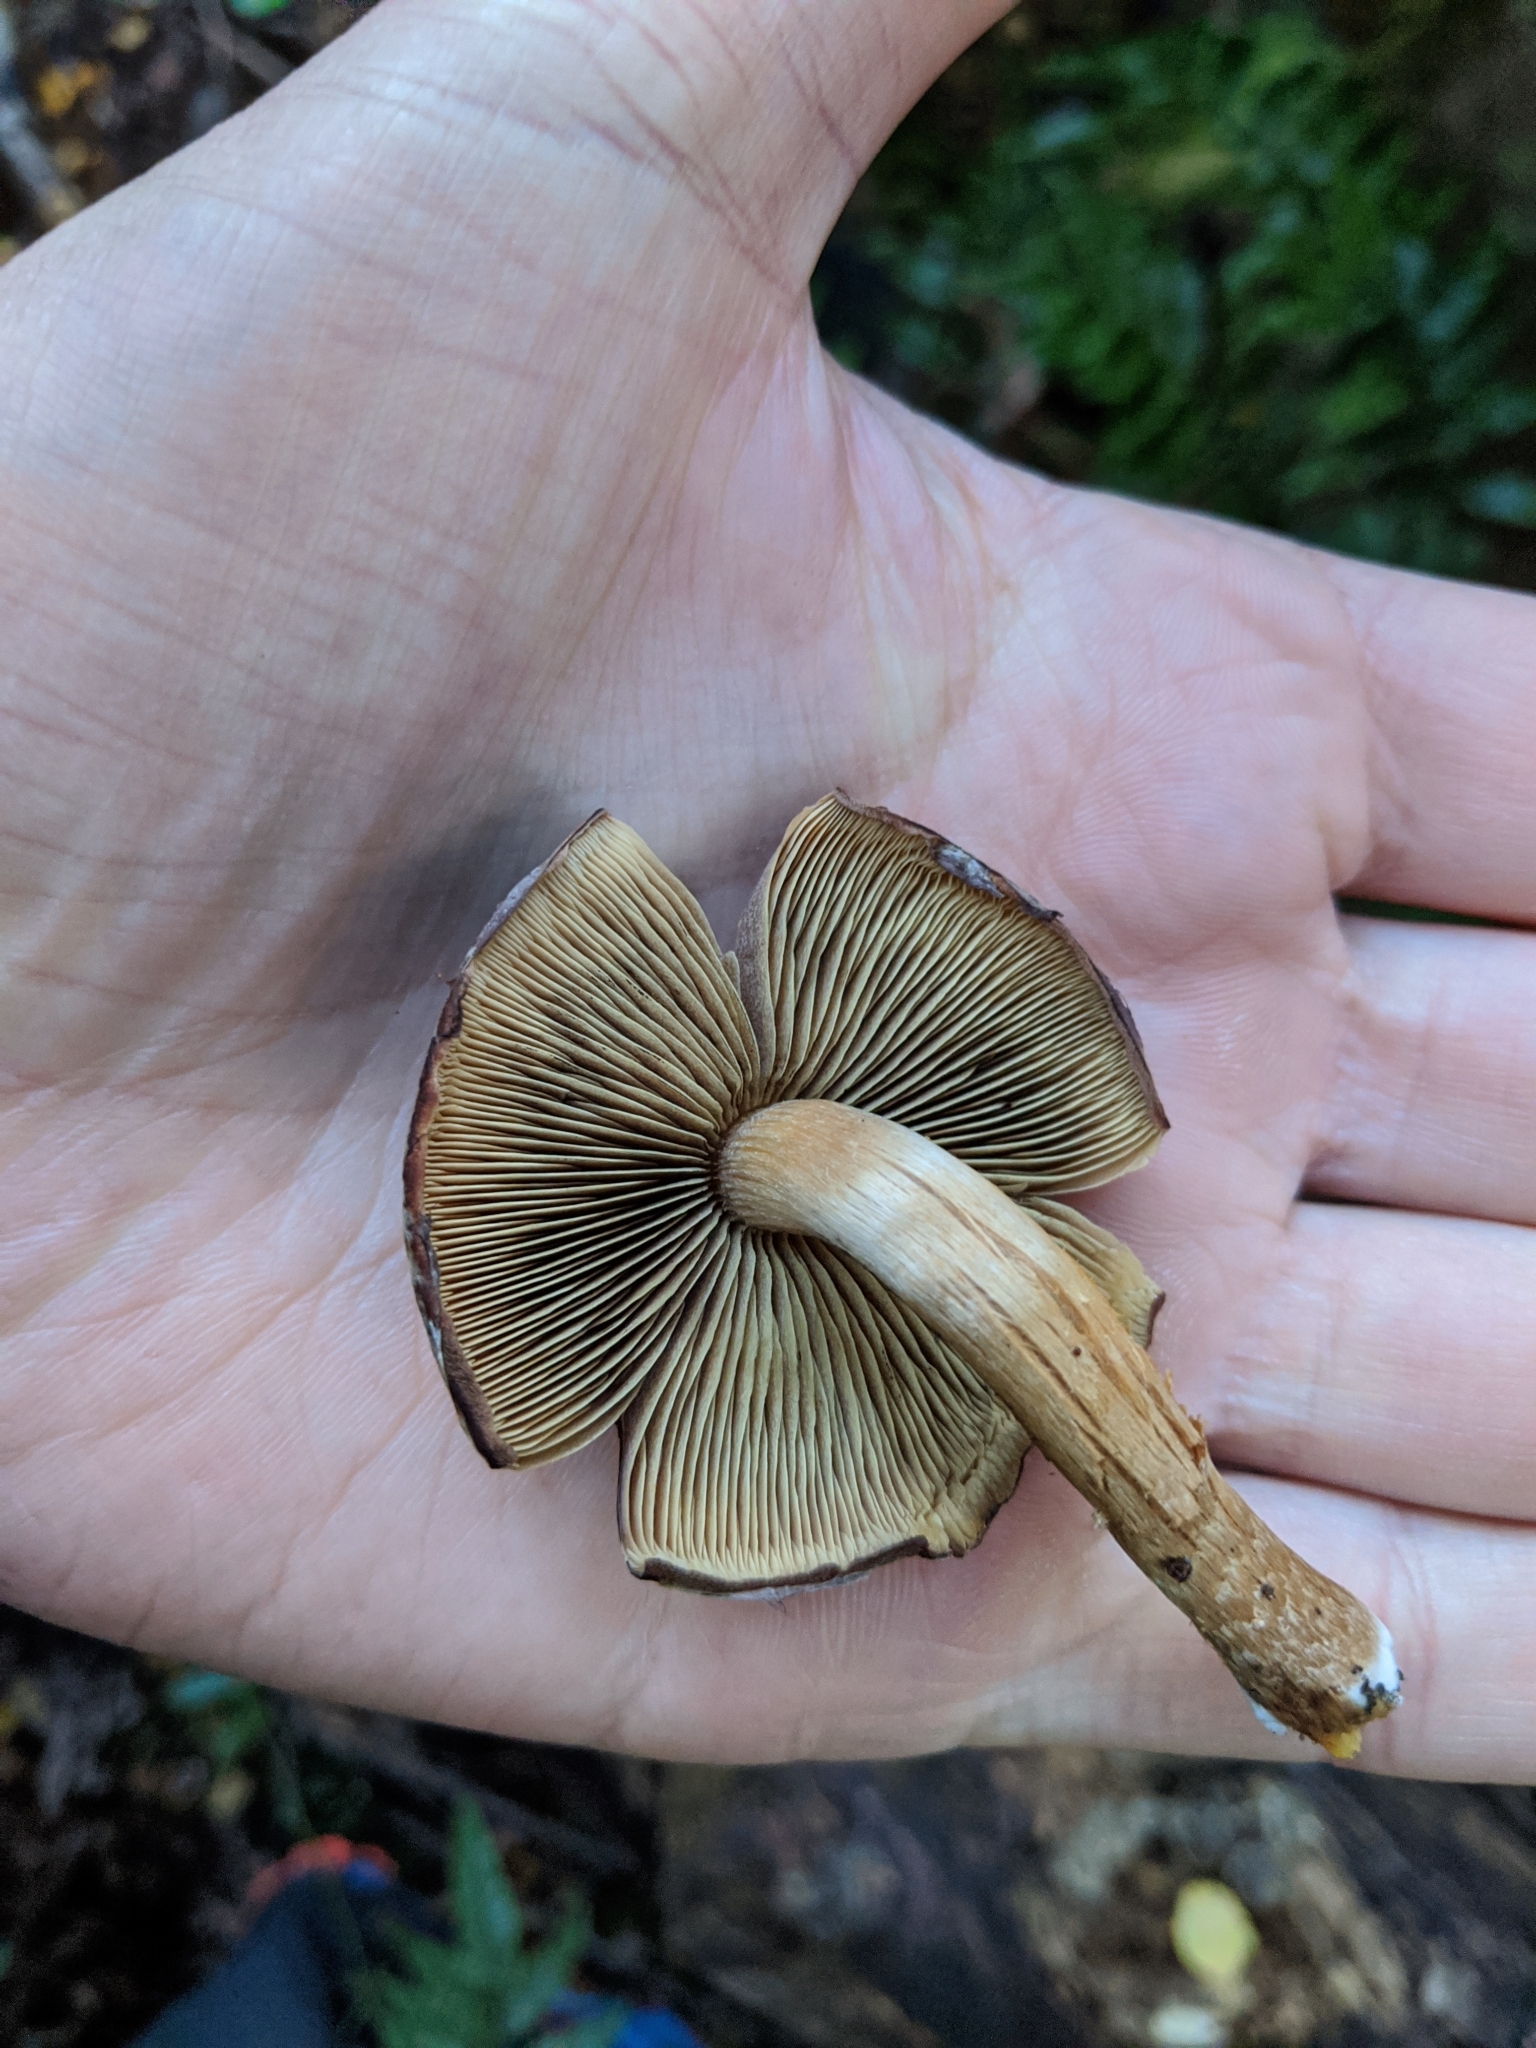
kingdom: Fungi
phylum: Basidiomycota
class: Agaricomycetes
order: Agaricales
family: Strophariaceae
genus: Hypholoma
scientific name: Hypholoma brunneum
